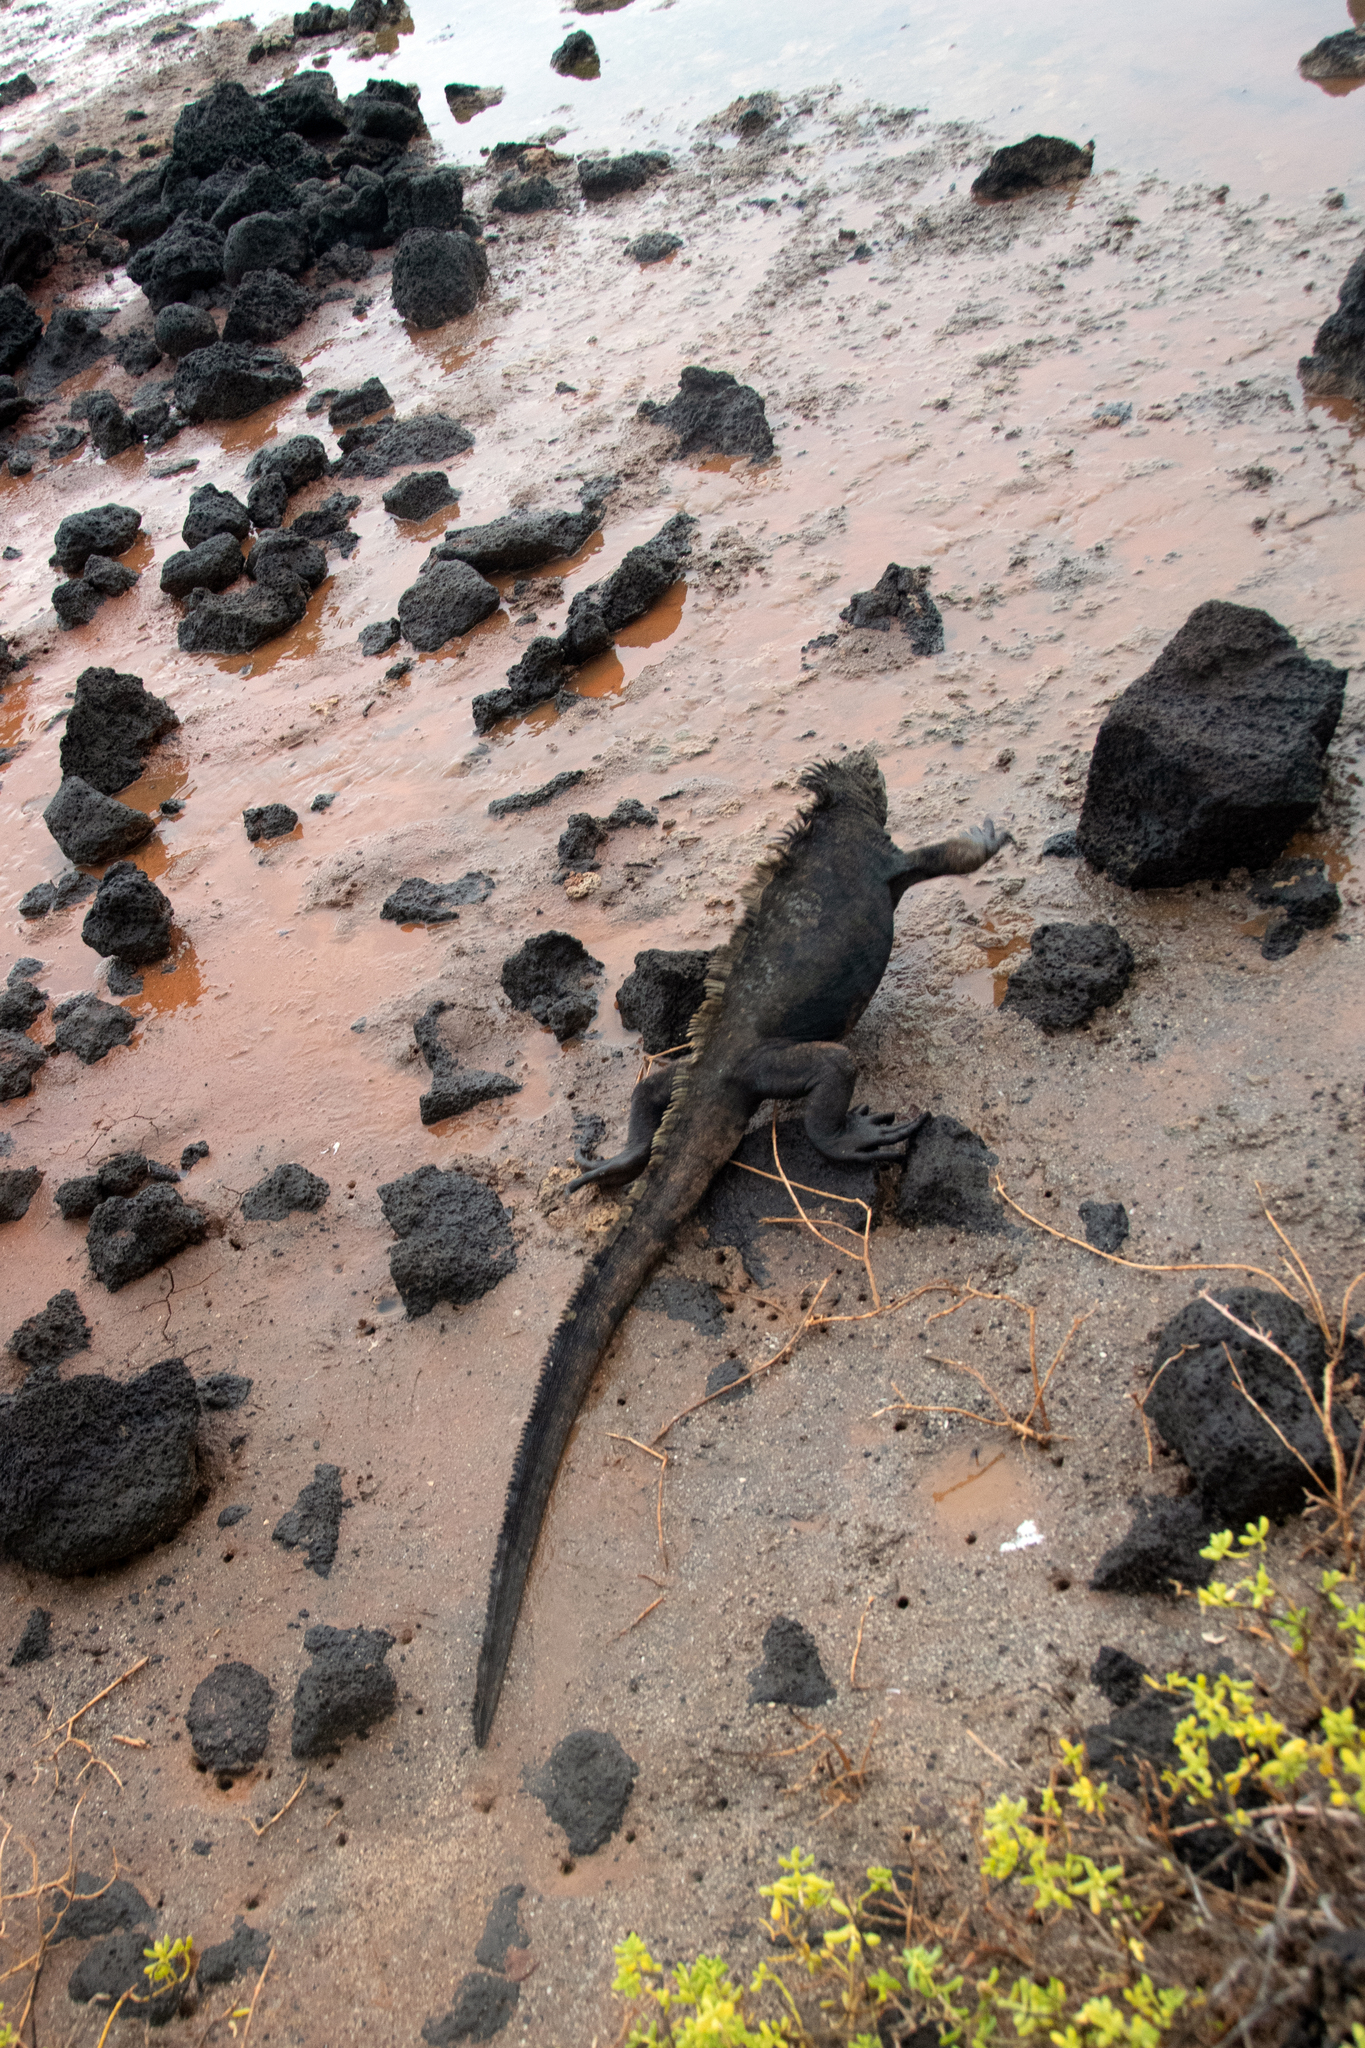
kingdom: Animalia
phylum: Chordata
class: Squamata
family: Iguanidae
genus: Amblyrhynchus
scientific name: Amblyrhynchus cristatus
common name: Marine iguana
